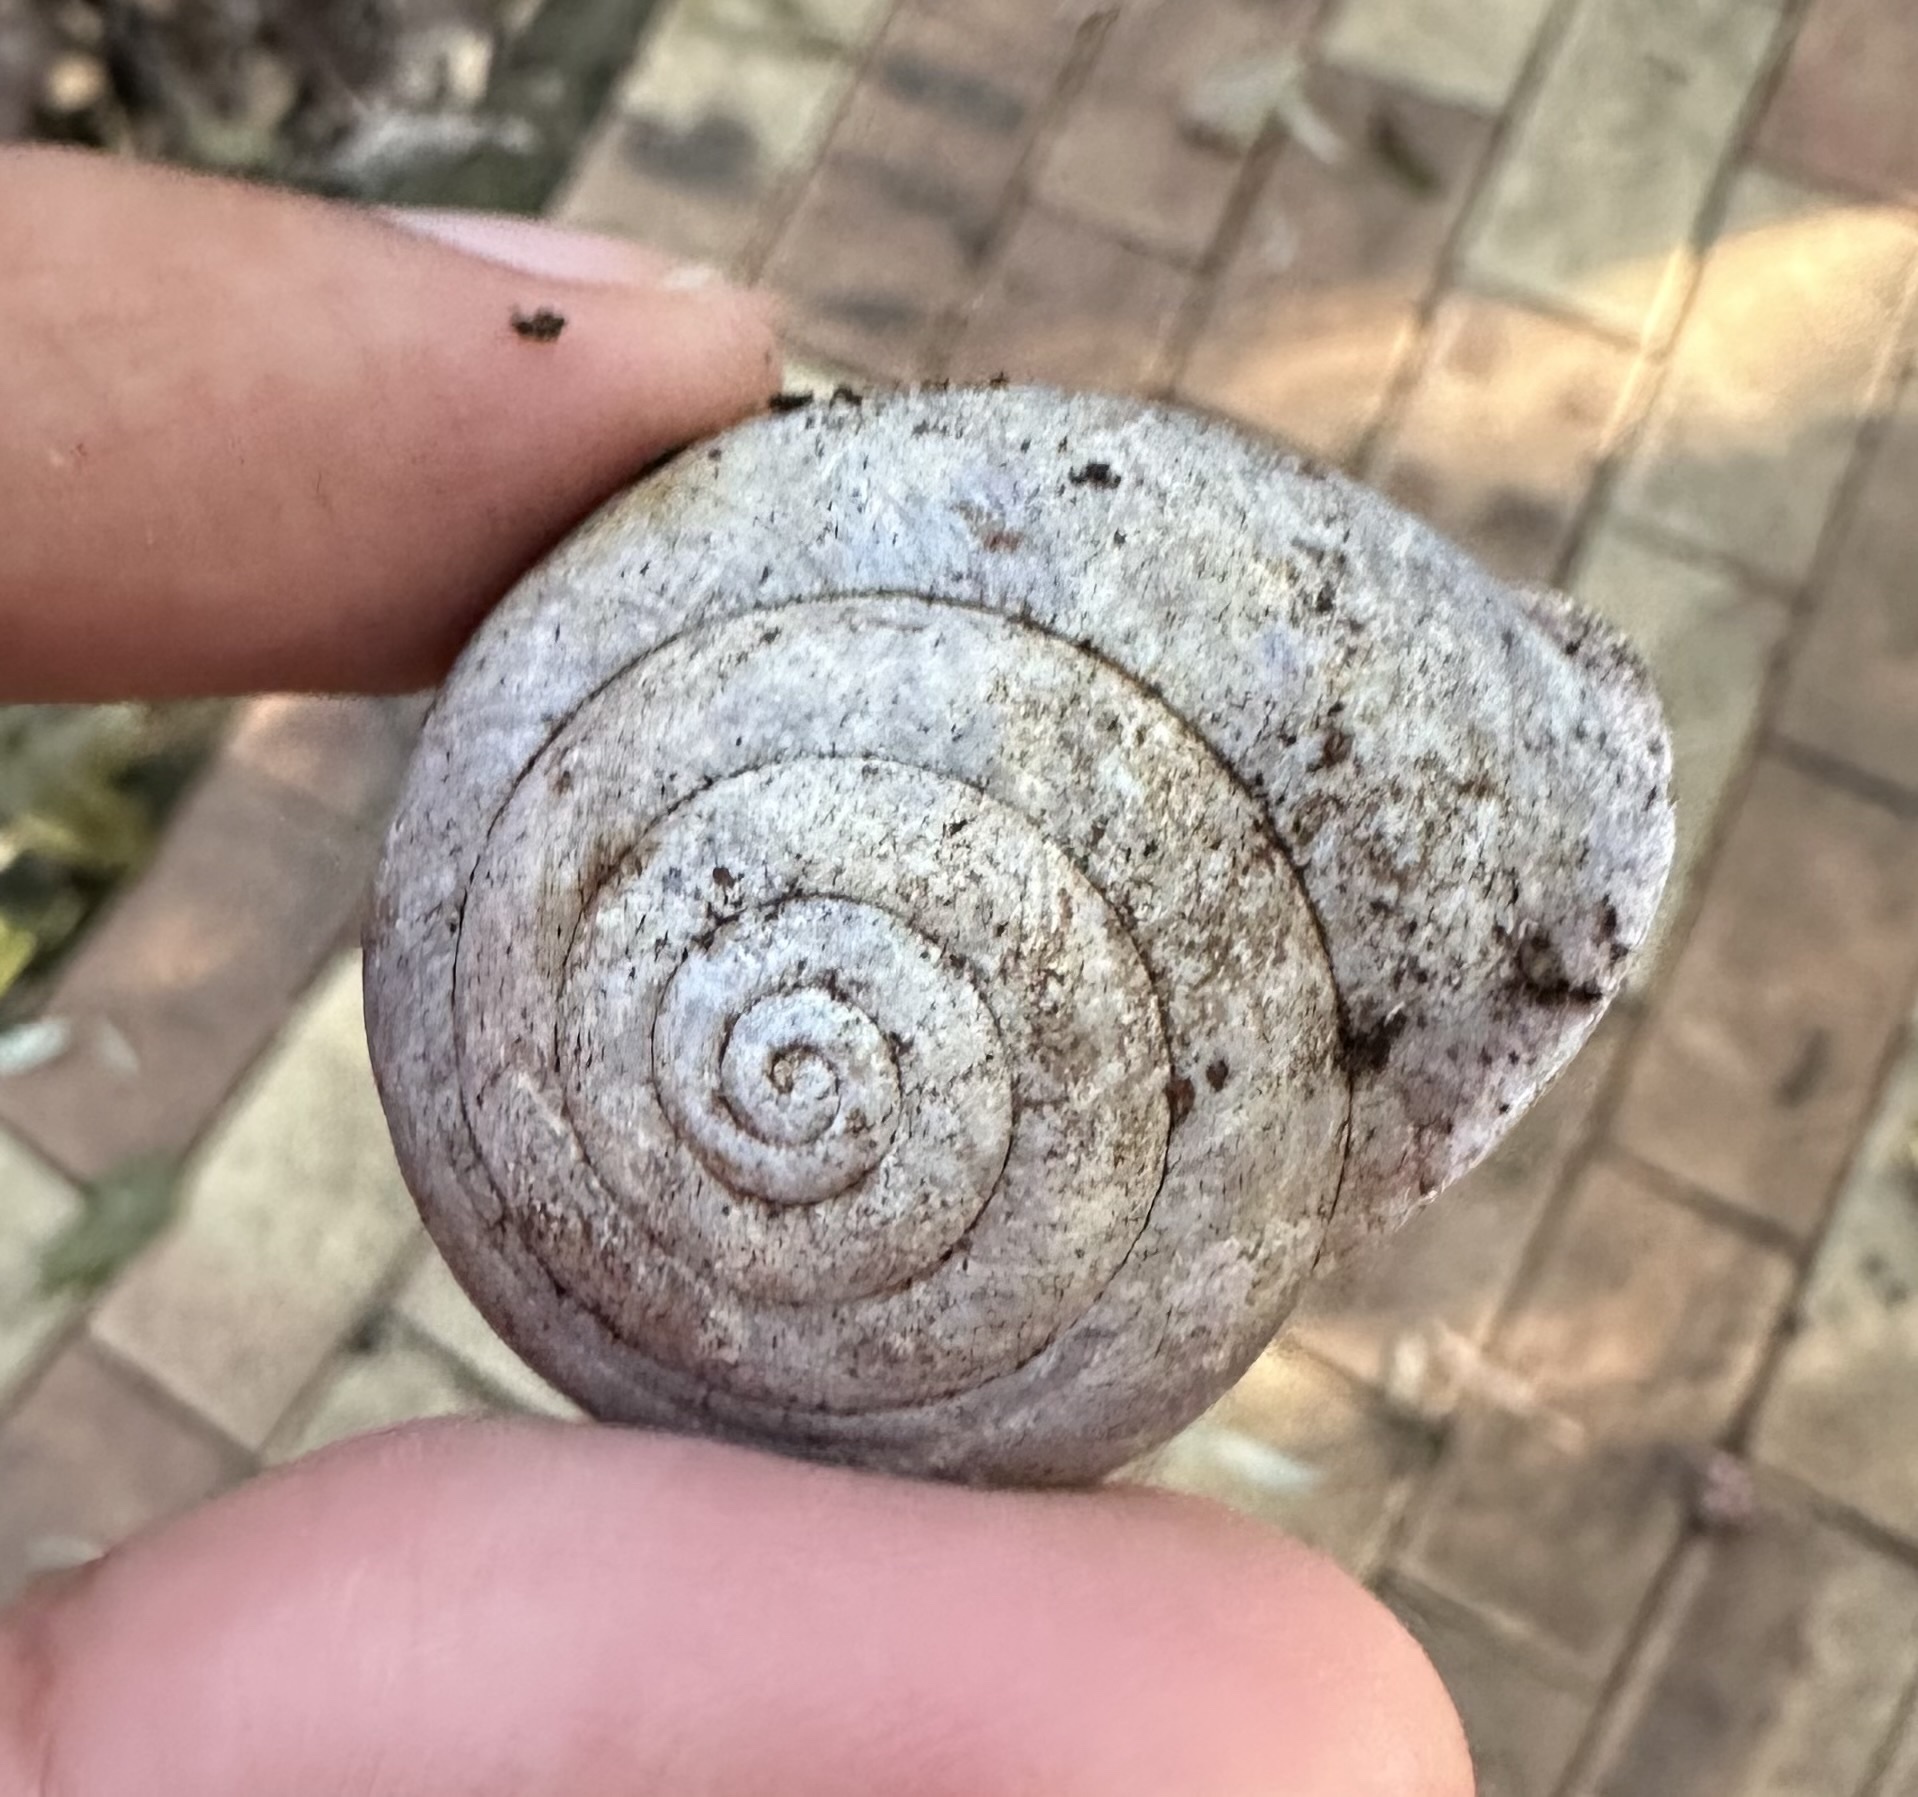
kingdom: Animalia
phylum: Mollusca
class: Gastropoda
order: Stylommatophora
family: Camaenidae
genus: Steorra
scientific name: Steorra bala
